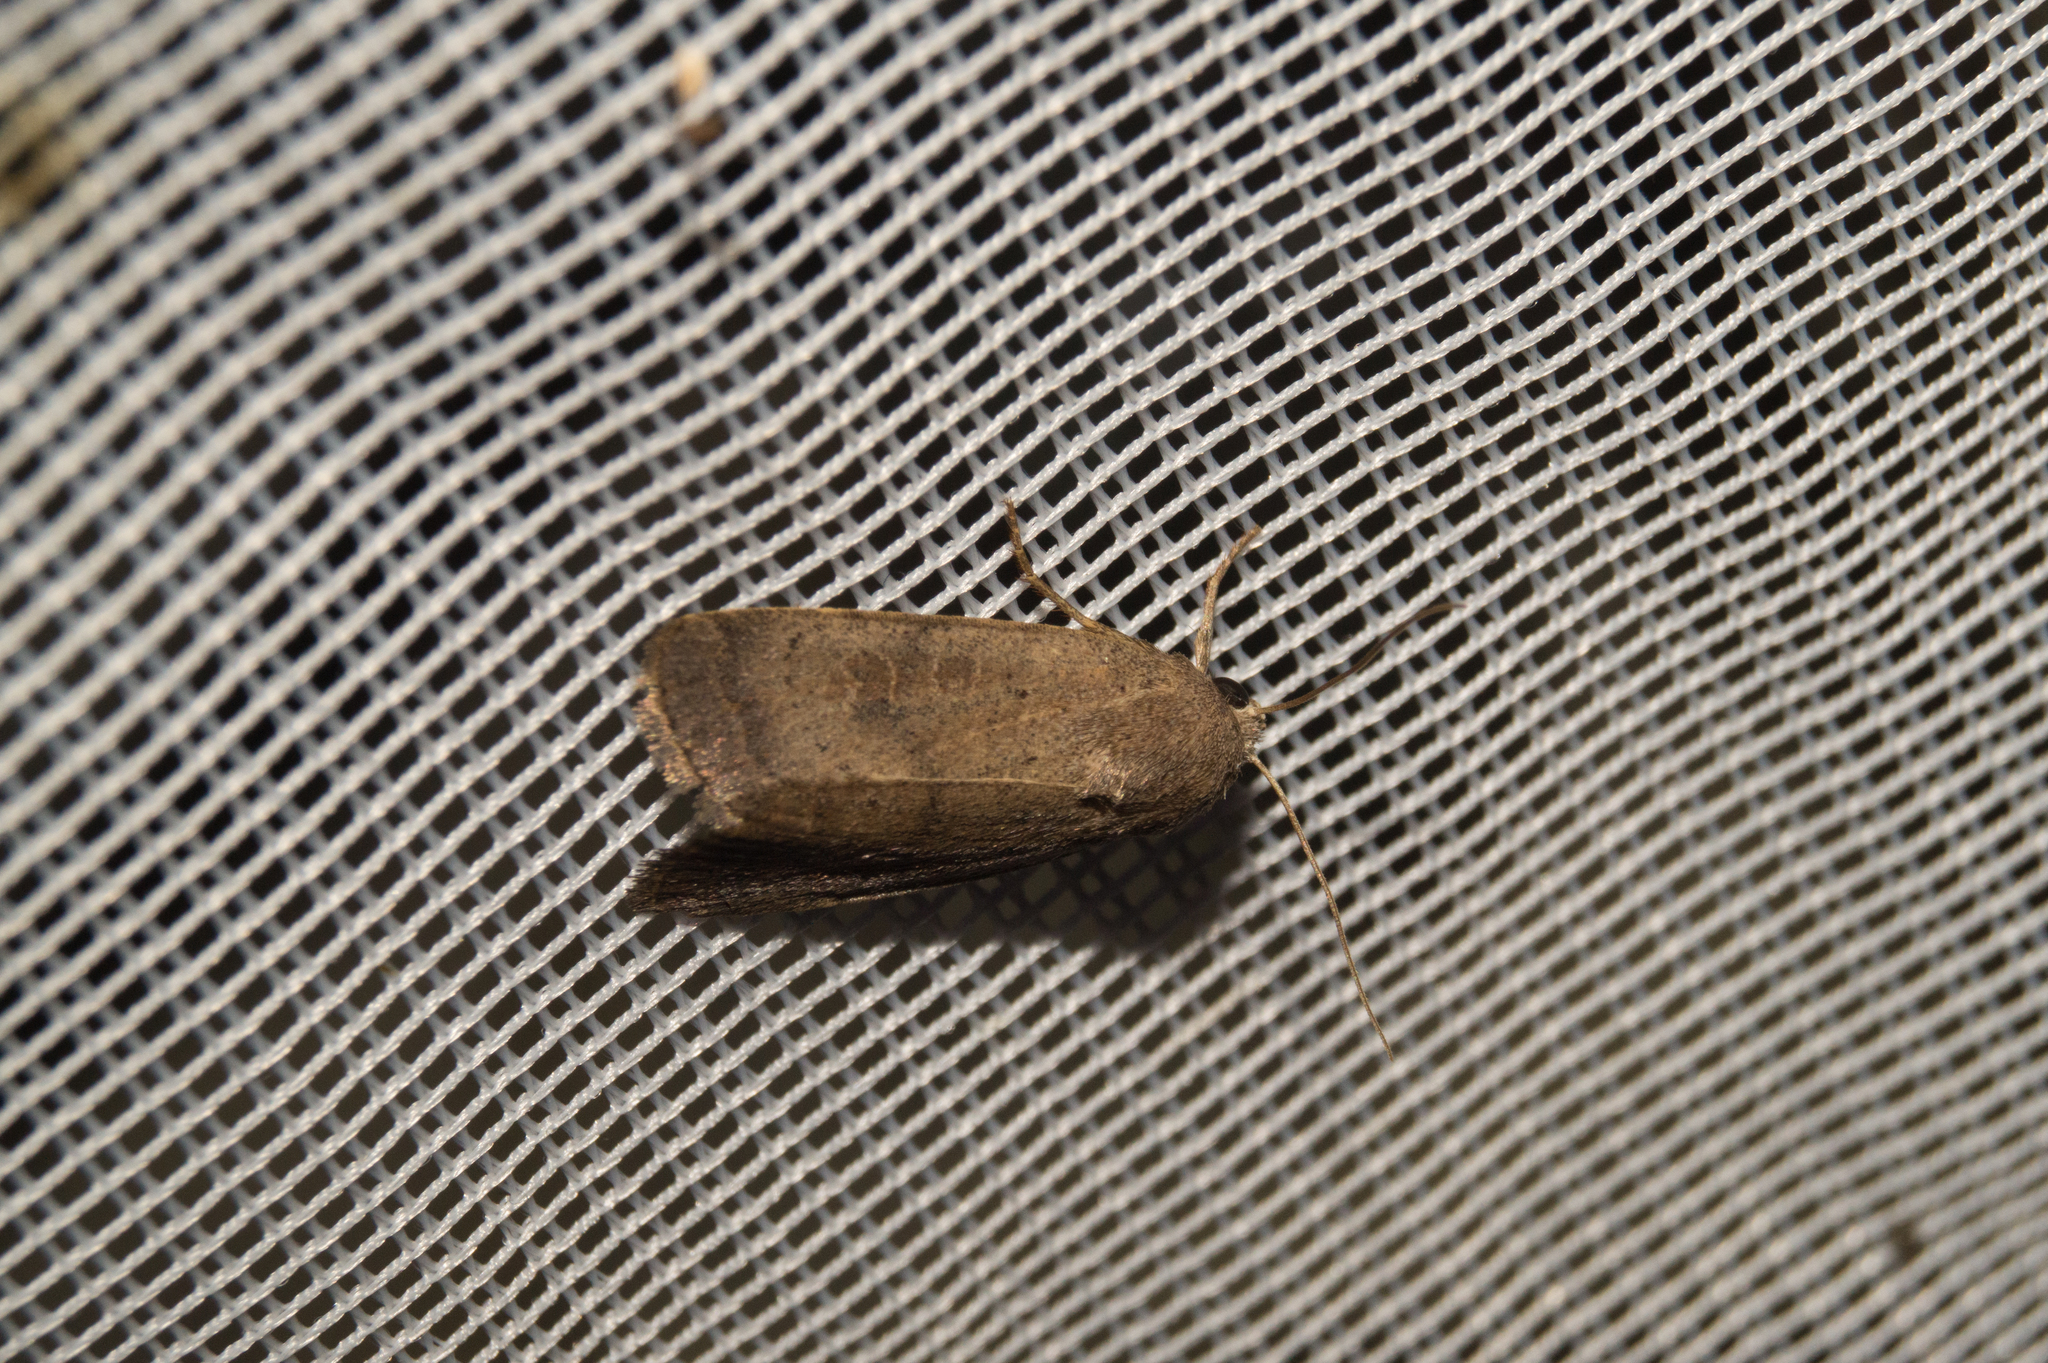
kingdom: Animalia
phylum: Arthropoda
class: Insecta
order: Lepidoptera
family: Noctuidae
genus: Hoplodrina
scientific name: Hoplodrina octogenaria
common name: Uncertain
